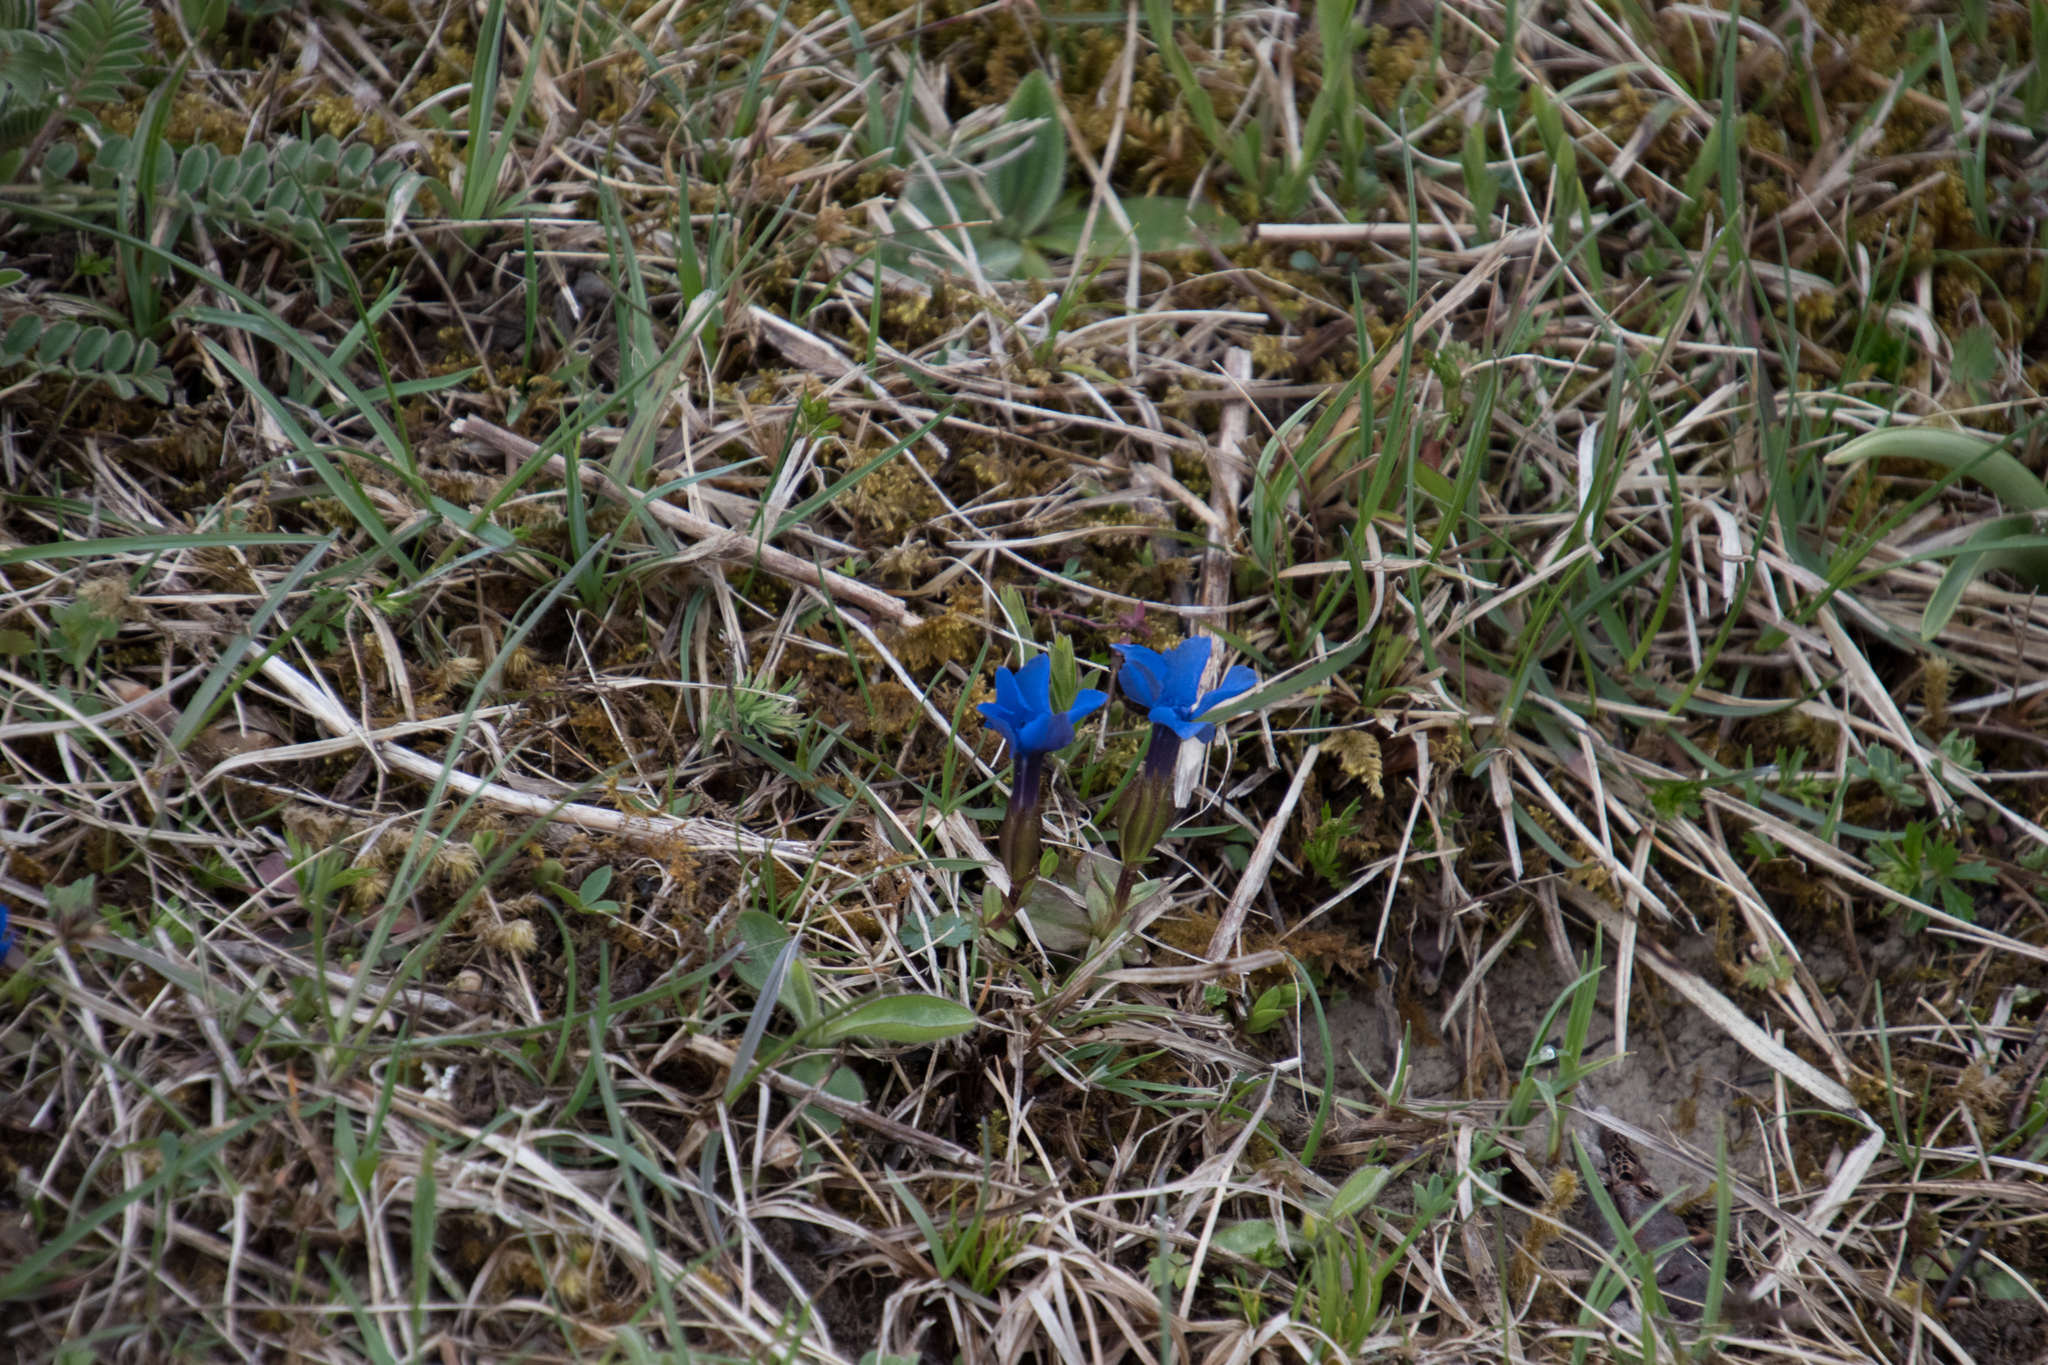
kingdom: Plantae
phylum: Tracheophyta
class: Magnoliopsida
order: Gentianales
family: Gentianaceae
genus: Gentiana
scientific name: Gentiana verna
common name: Spring gentian
